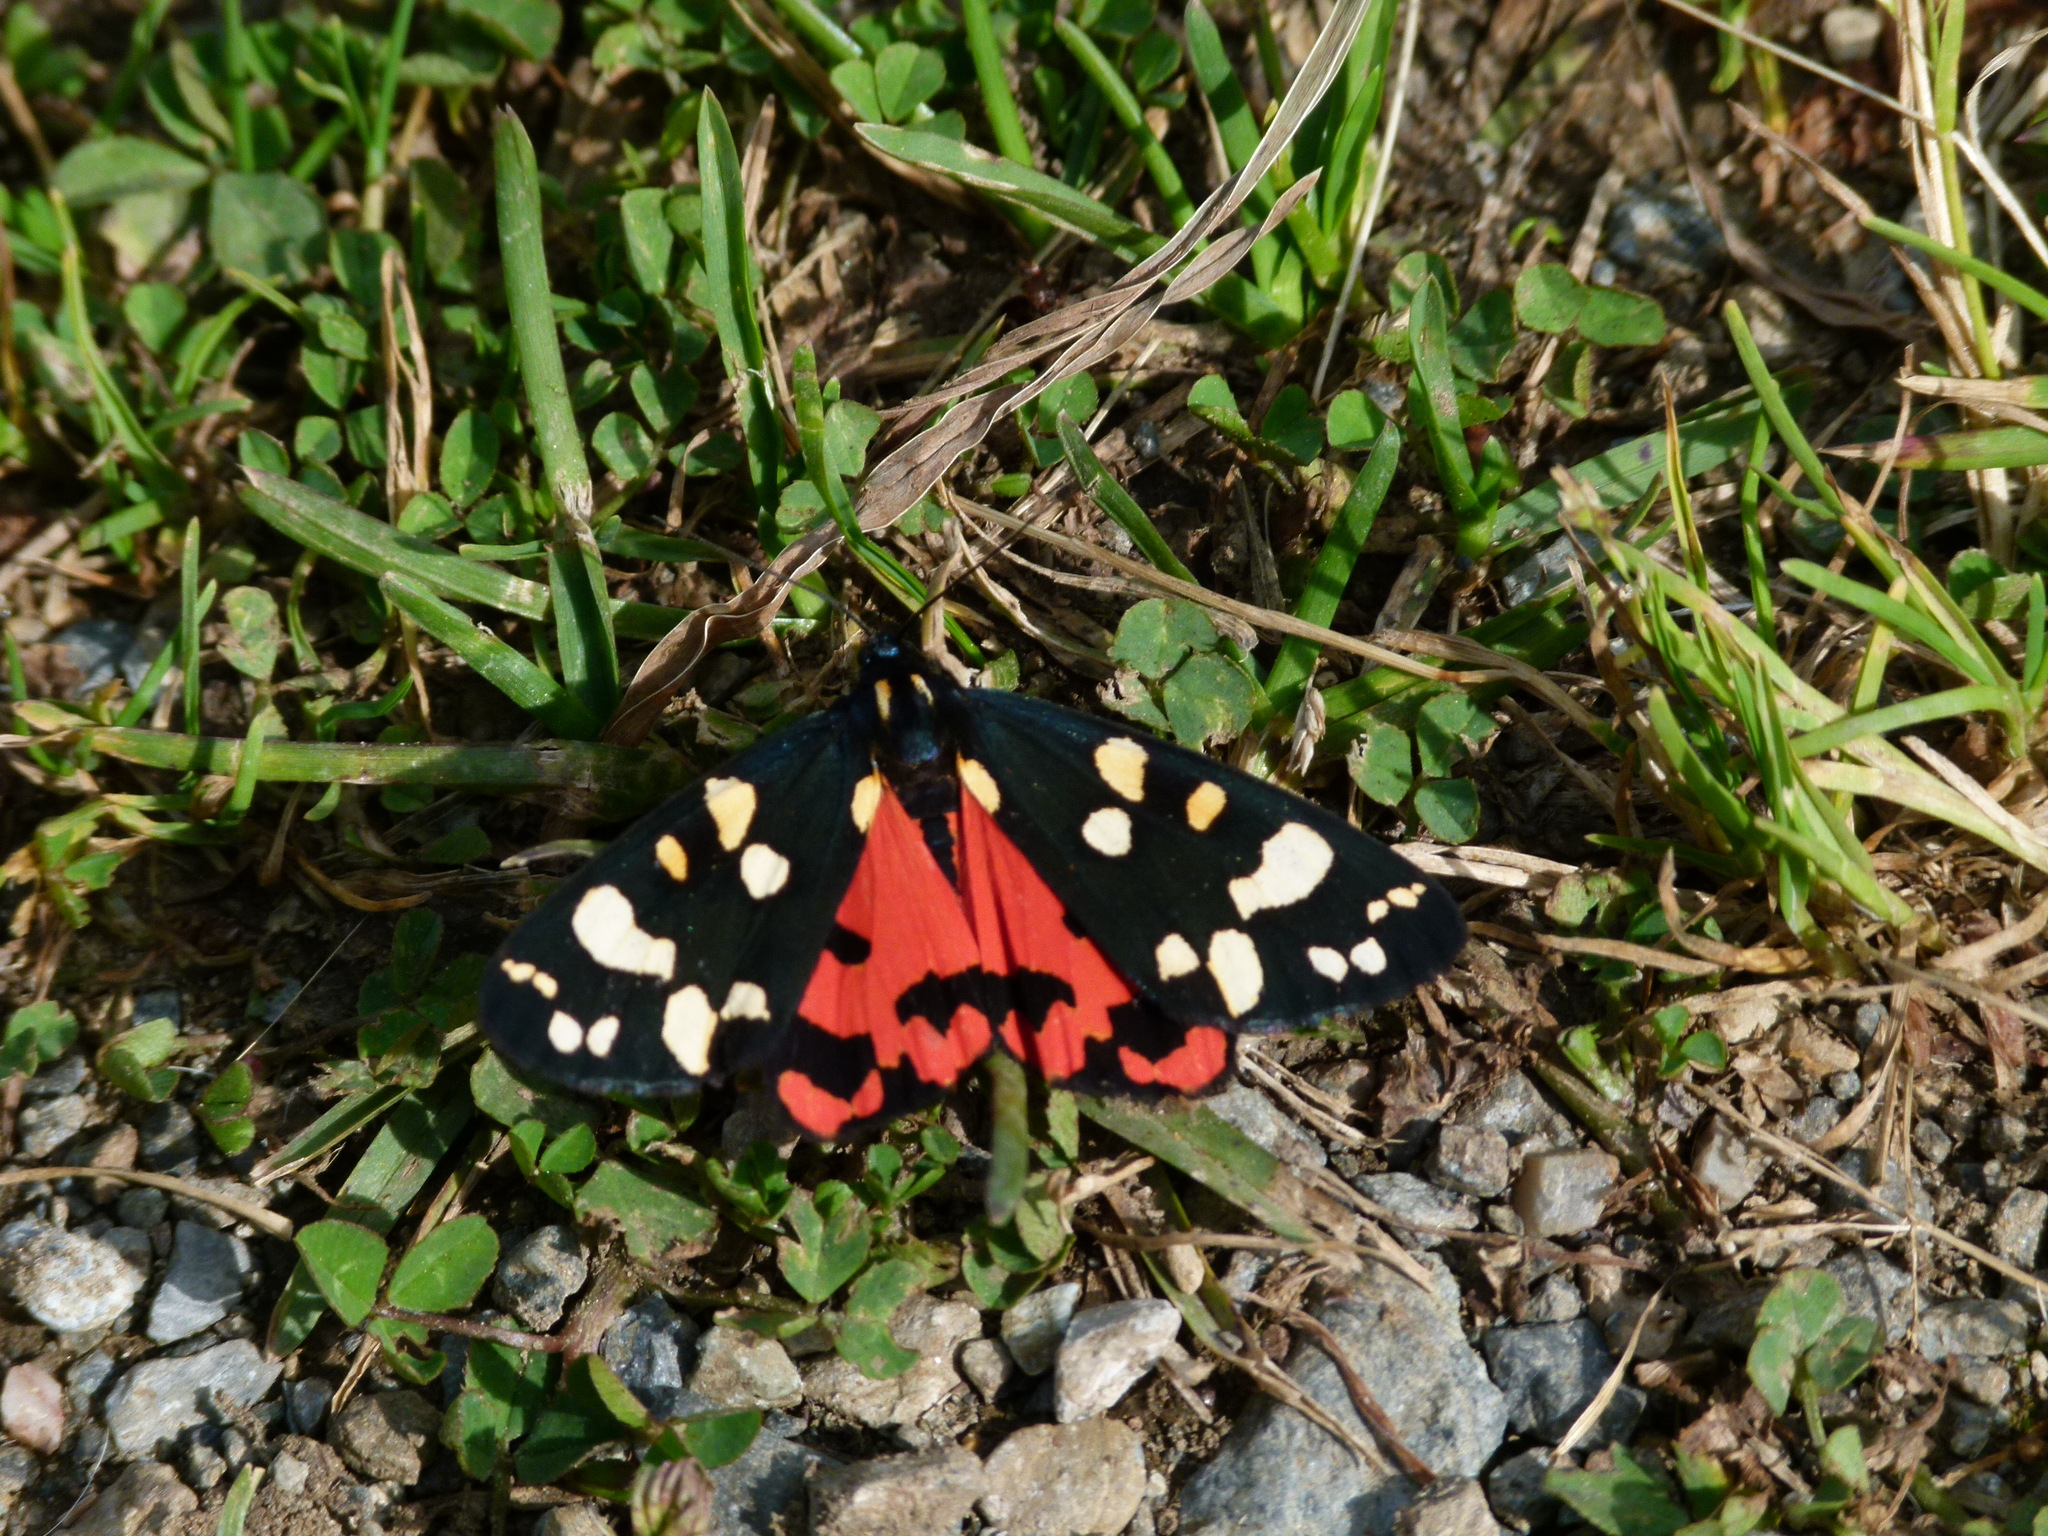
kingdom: Animalia
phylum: Arthropoda
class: Insecta
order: Lepidoptera
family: Erebidae
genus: Callimorpha
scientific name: Callimorpha dominula
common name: Scarlet tiger
